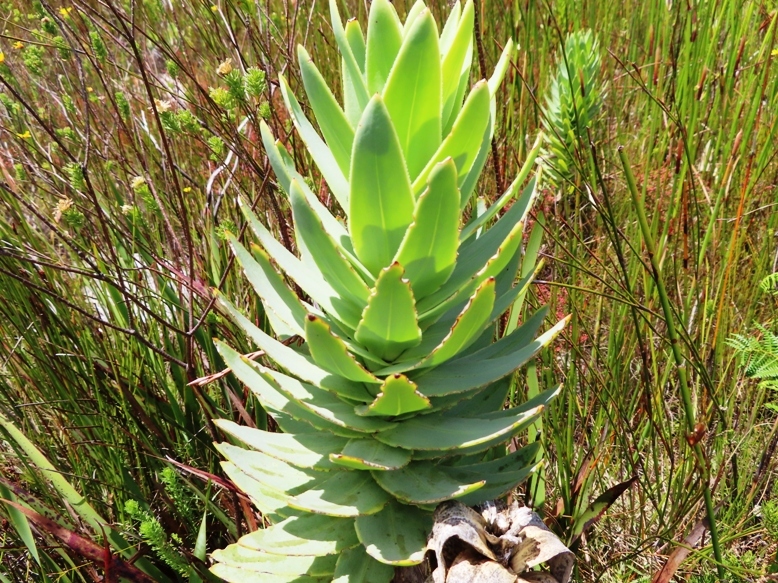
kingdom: Plantae
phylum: Tracheophyta
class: Magnoliopsida
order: Asterales
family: Asteraceae
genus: Osteospermum
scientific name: Osteospermum corymbosum
